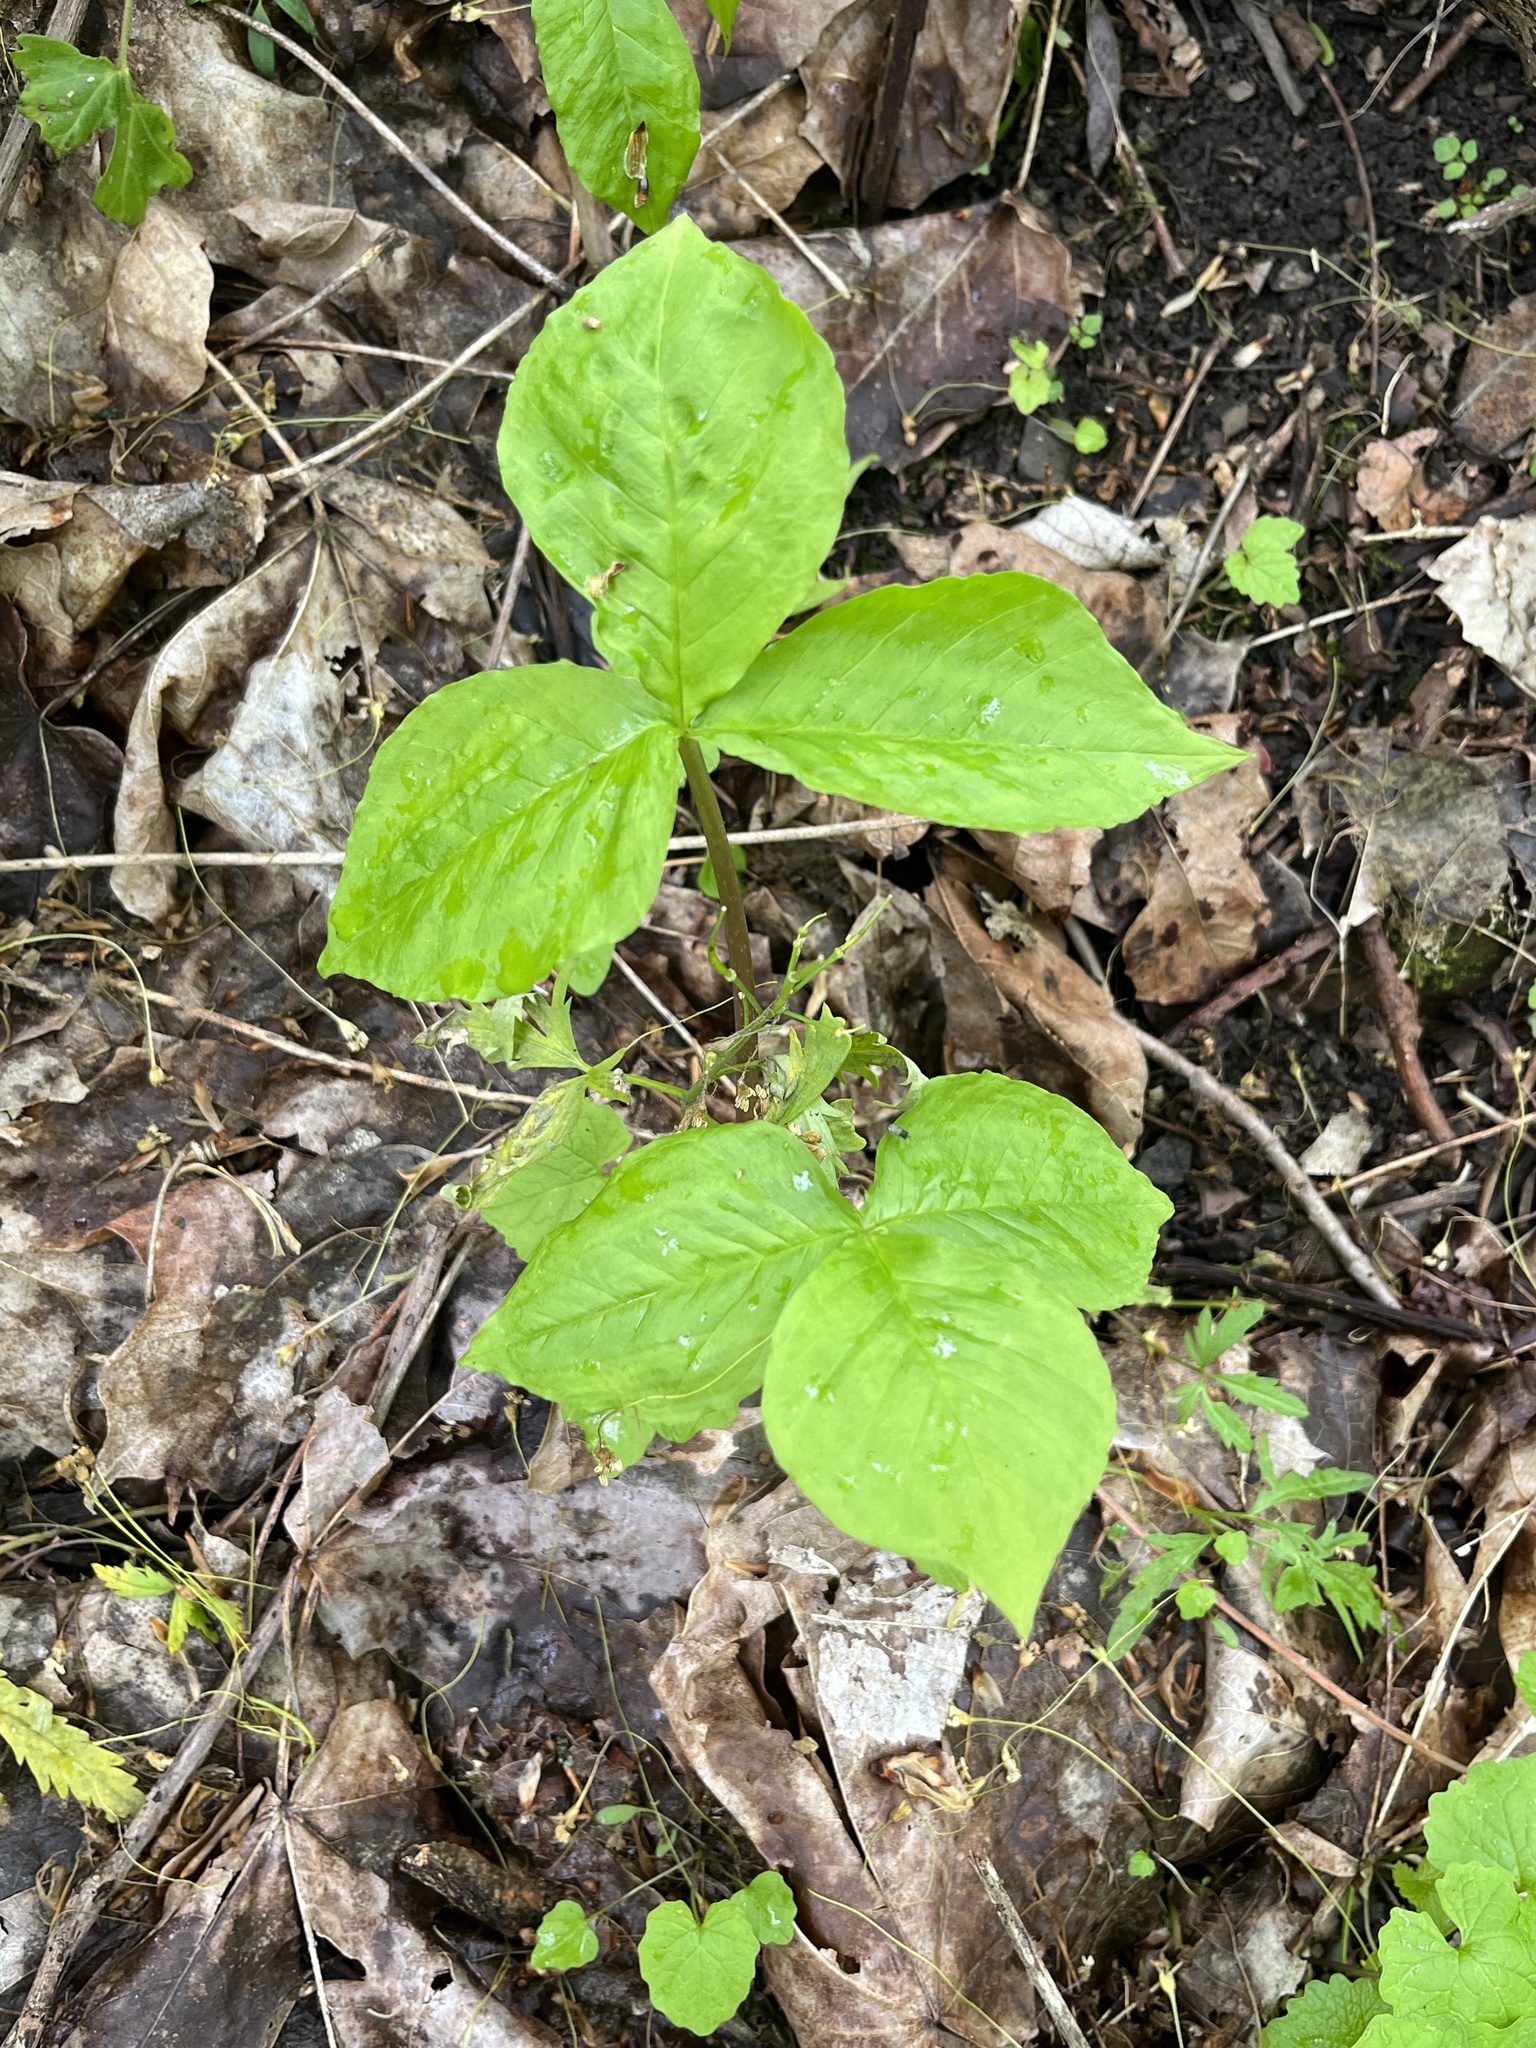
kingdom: Plantae
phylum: Tracheophyta
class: Liliopsida
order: Alismatales
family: Araceae
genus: Arisaema
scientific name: Arisaema triphyllum
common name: Jack-in-the-pulpit
